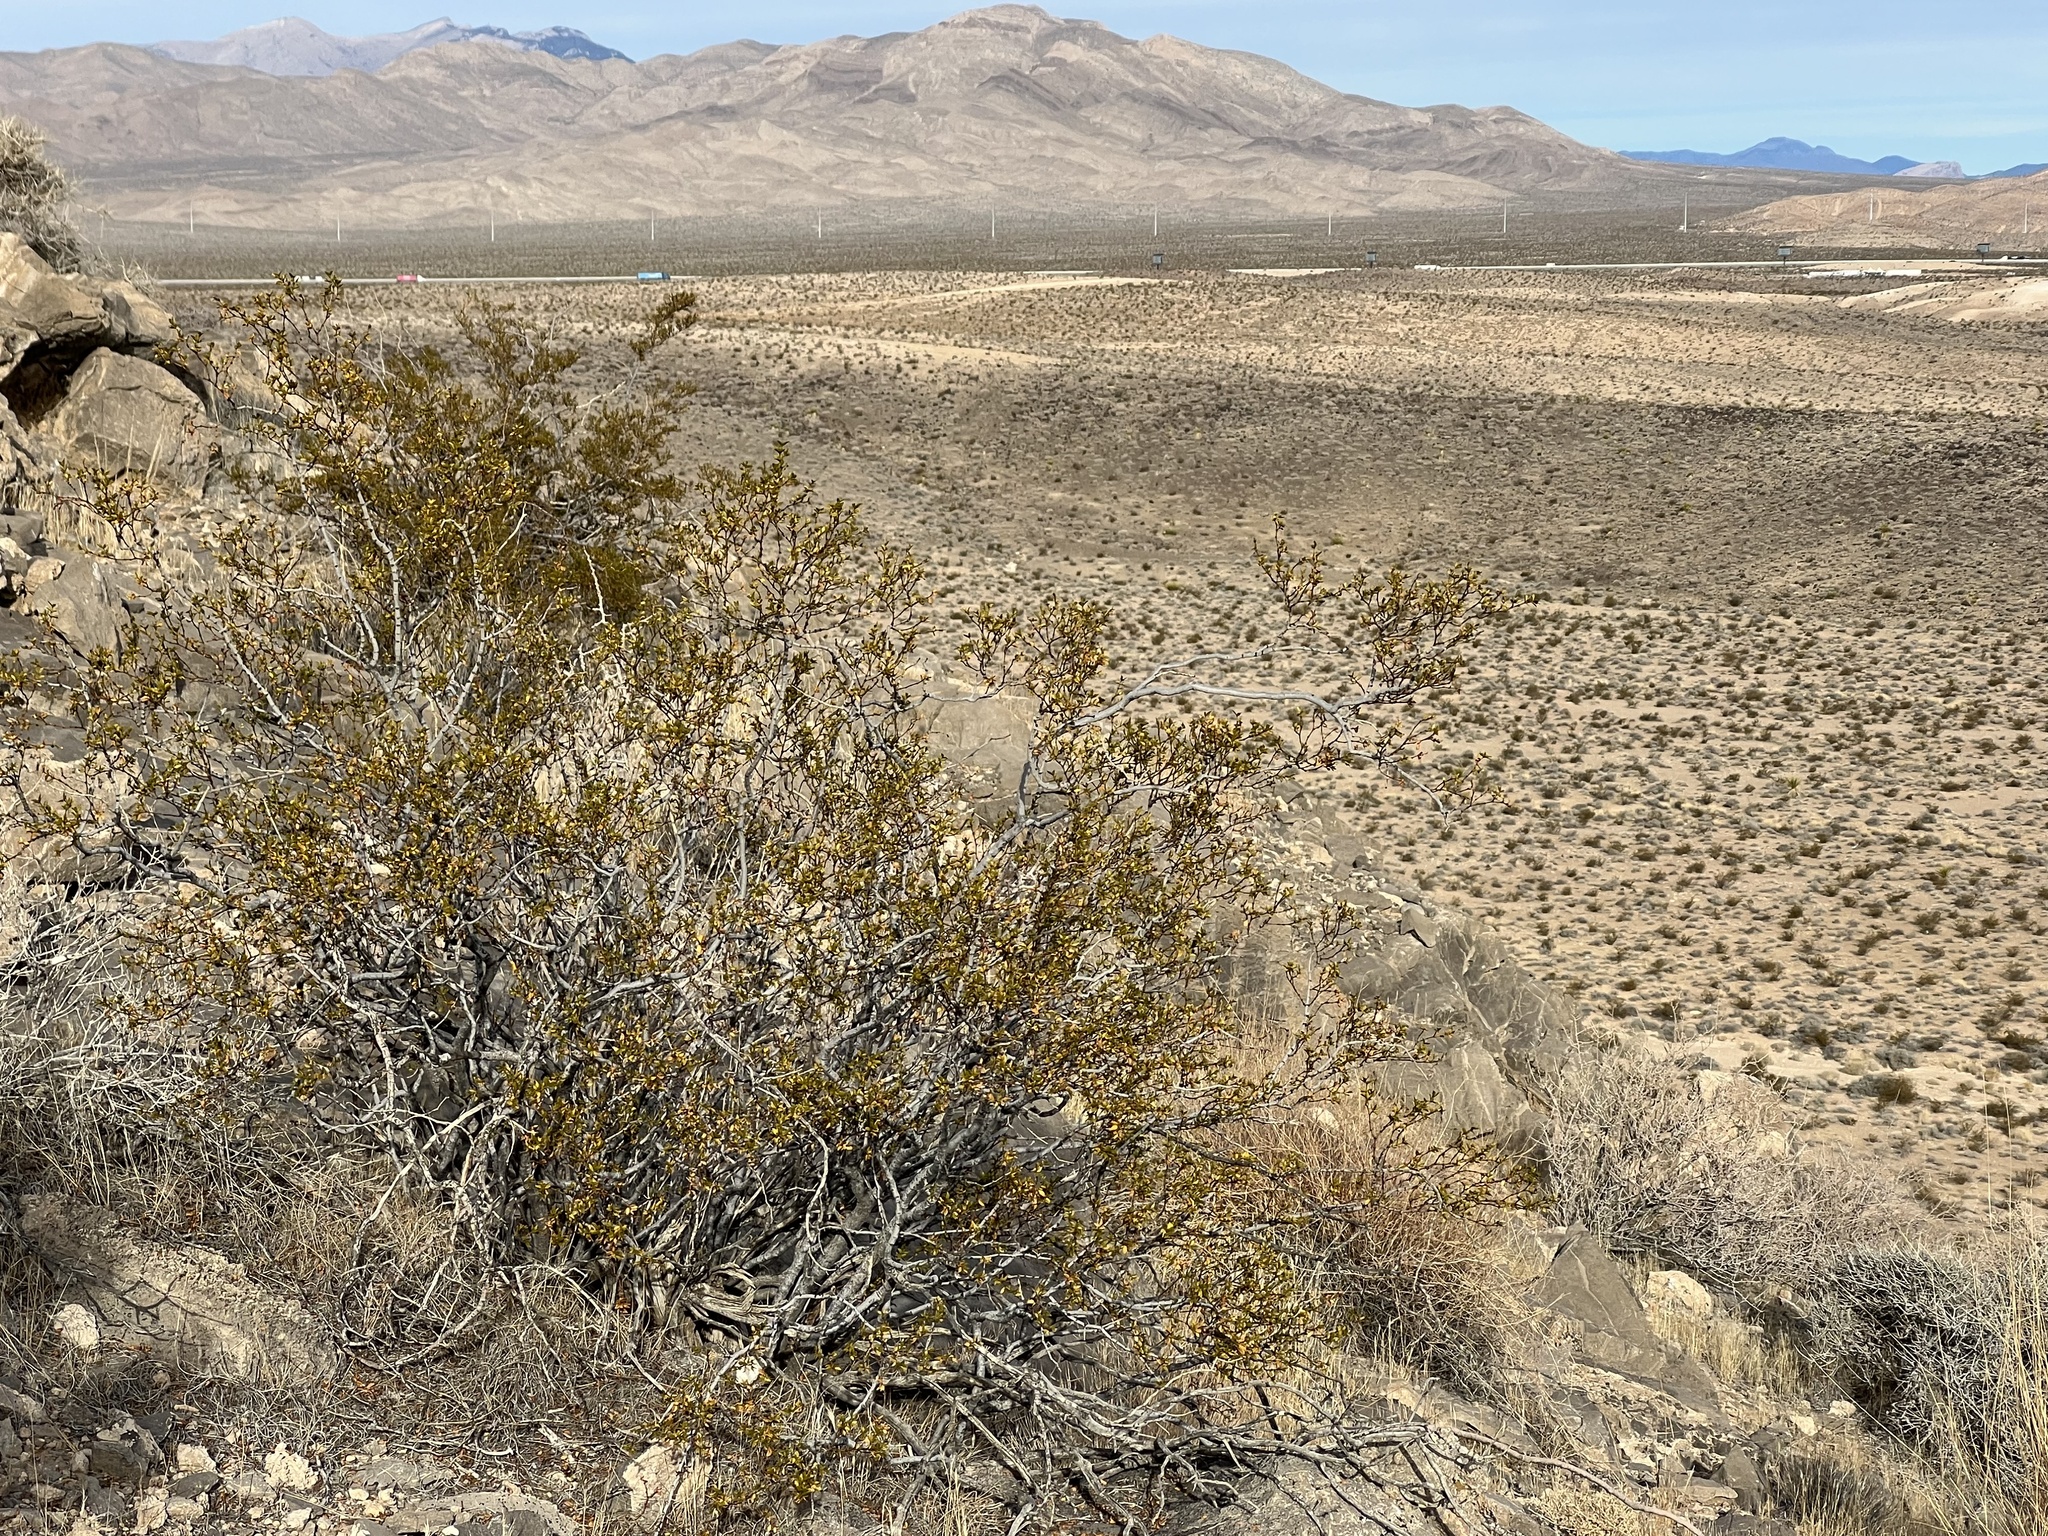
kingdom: Plantae
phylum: Tracheophyta
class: Magnoliopsida
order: Zygophyllales
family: Zygophyllaceae
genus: Larrea
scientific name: Larrea tridentata
